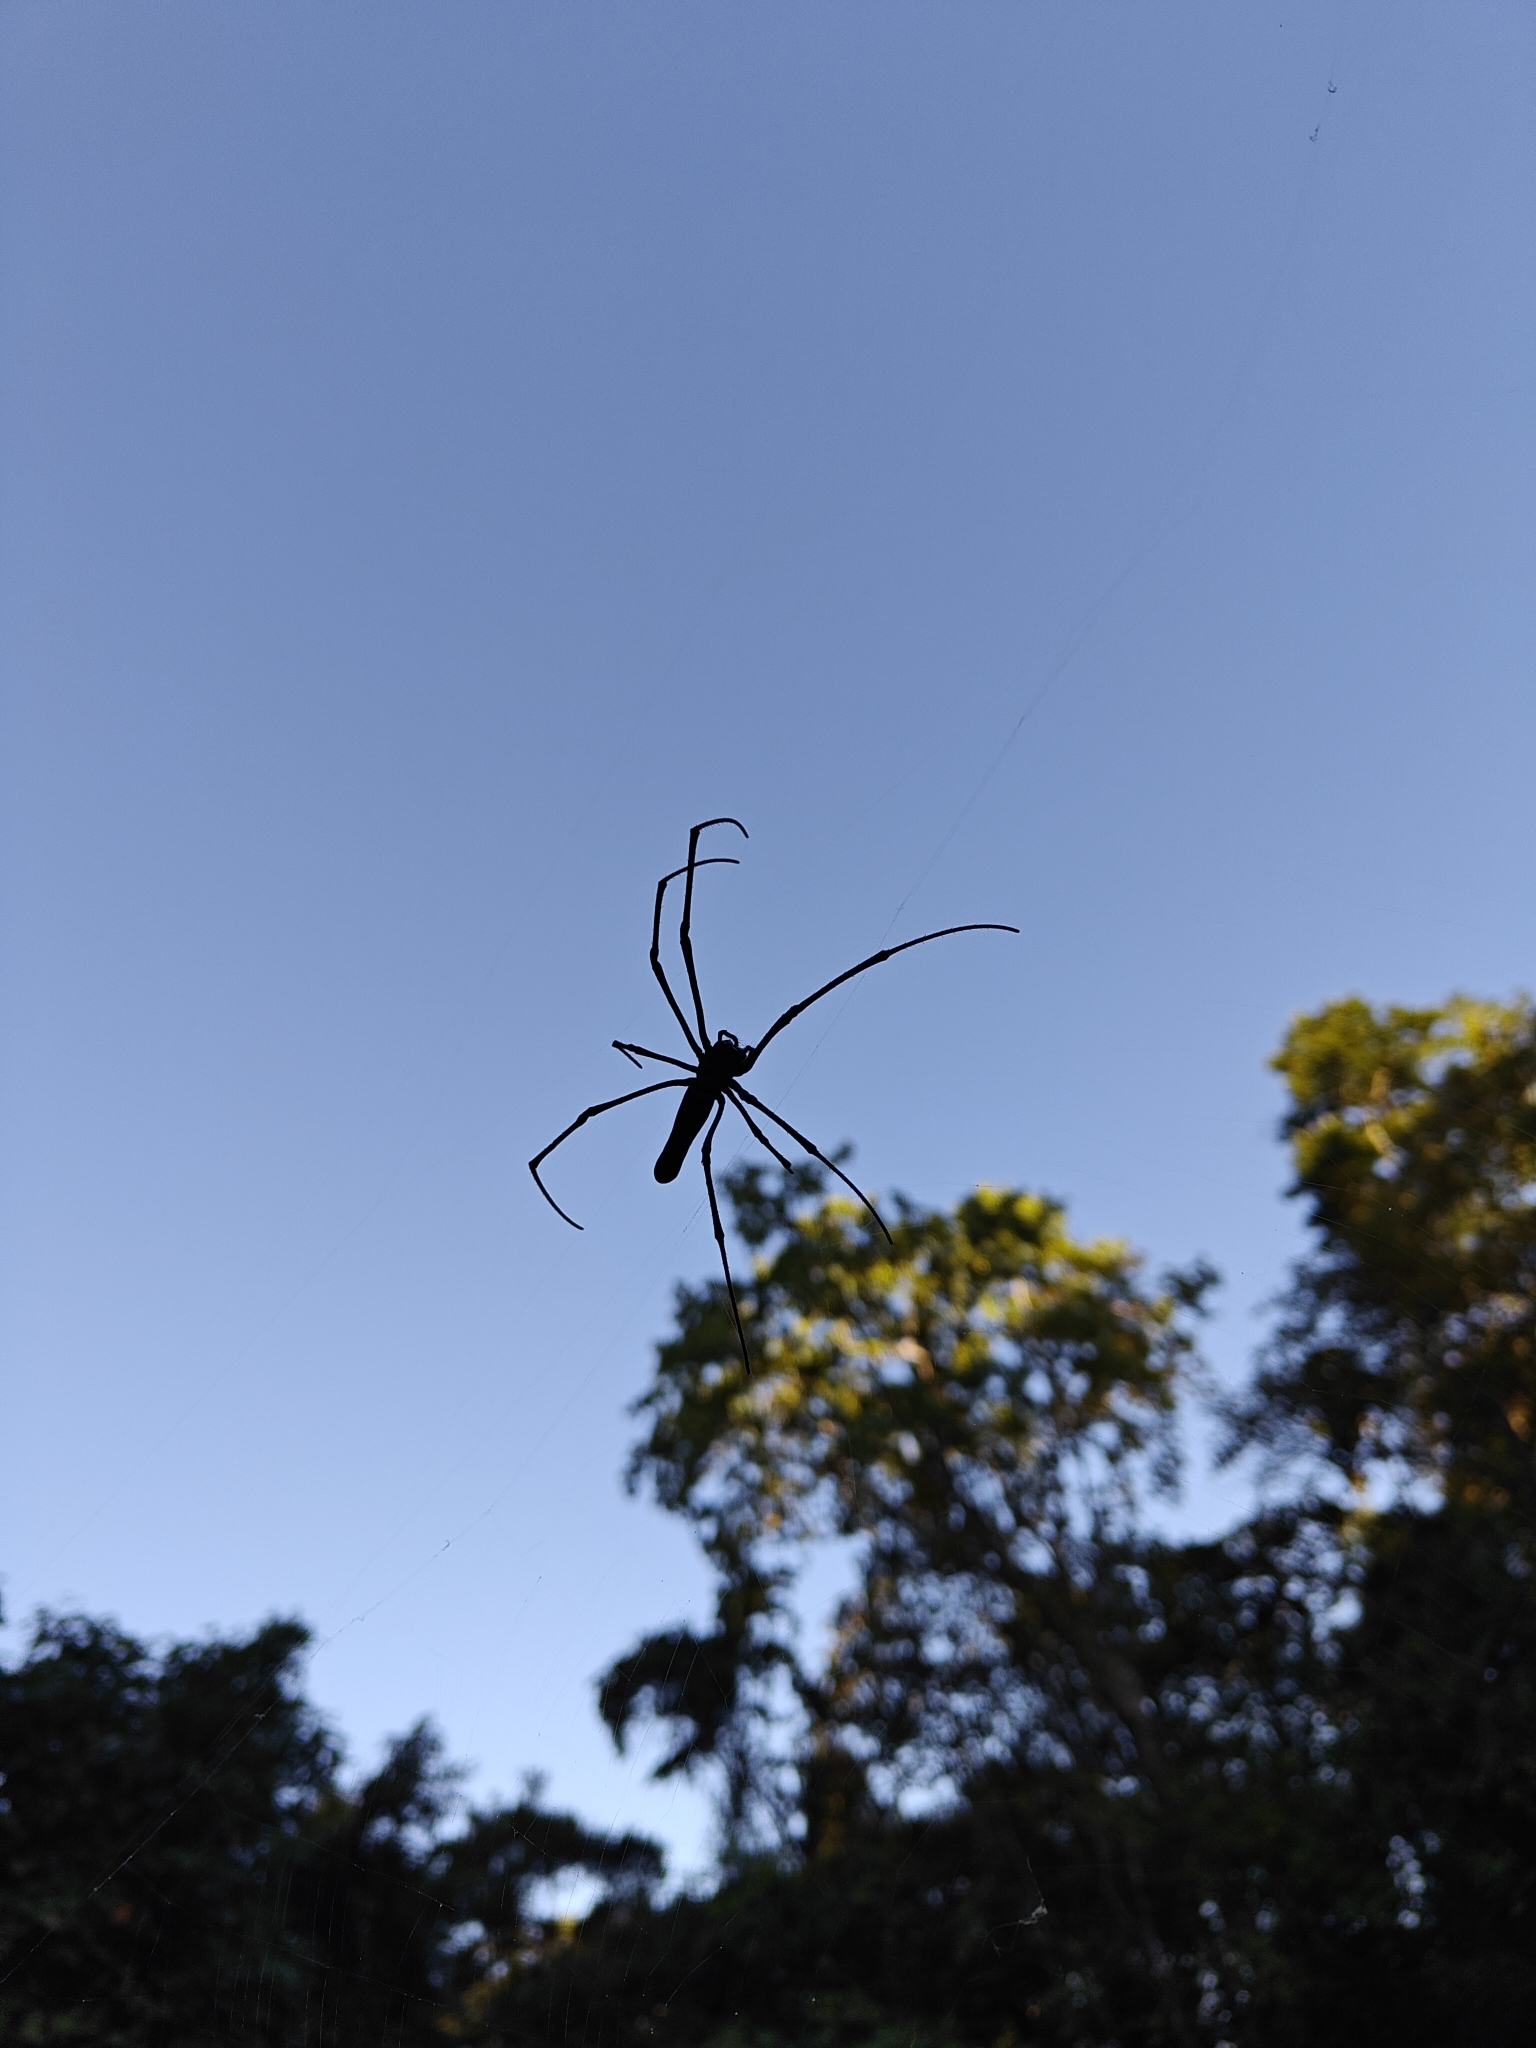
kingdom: Animalia
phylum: Arthropoda
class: Arachnida
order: Araneae
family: Araneidae
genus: Nephila
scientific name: Nephila pilipes
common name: Giant golden orb weaver
